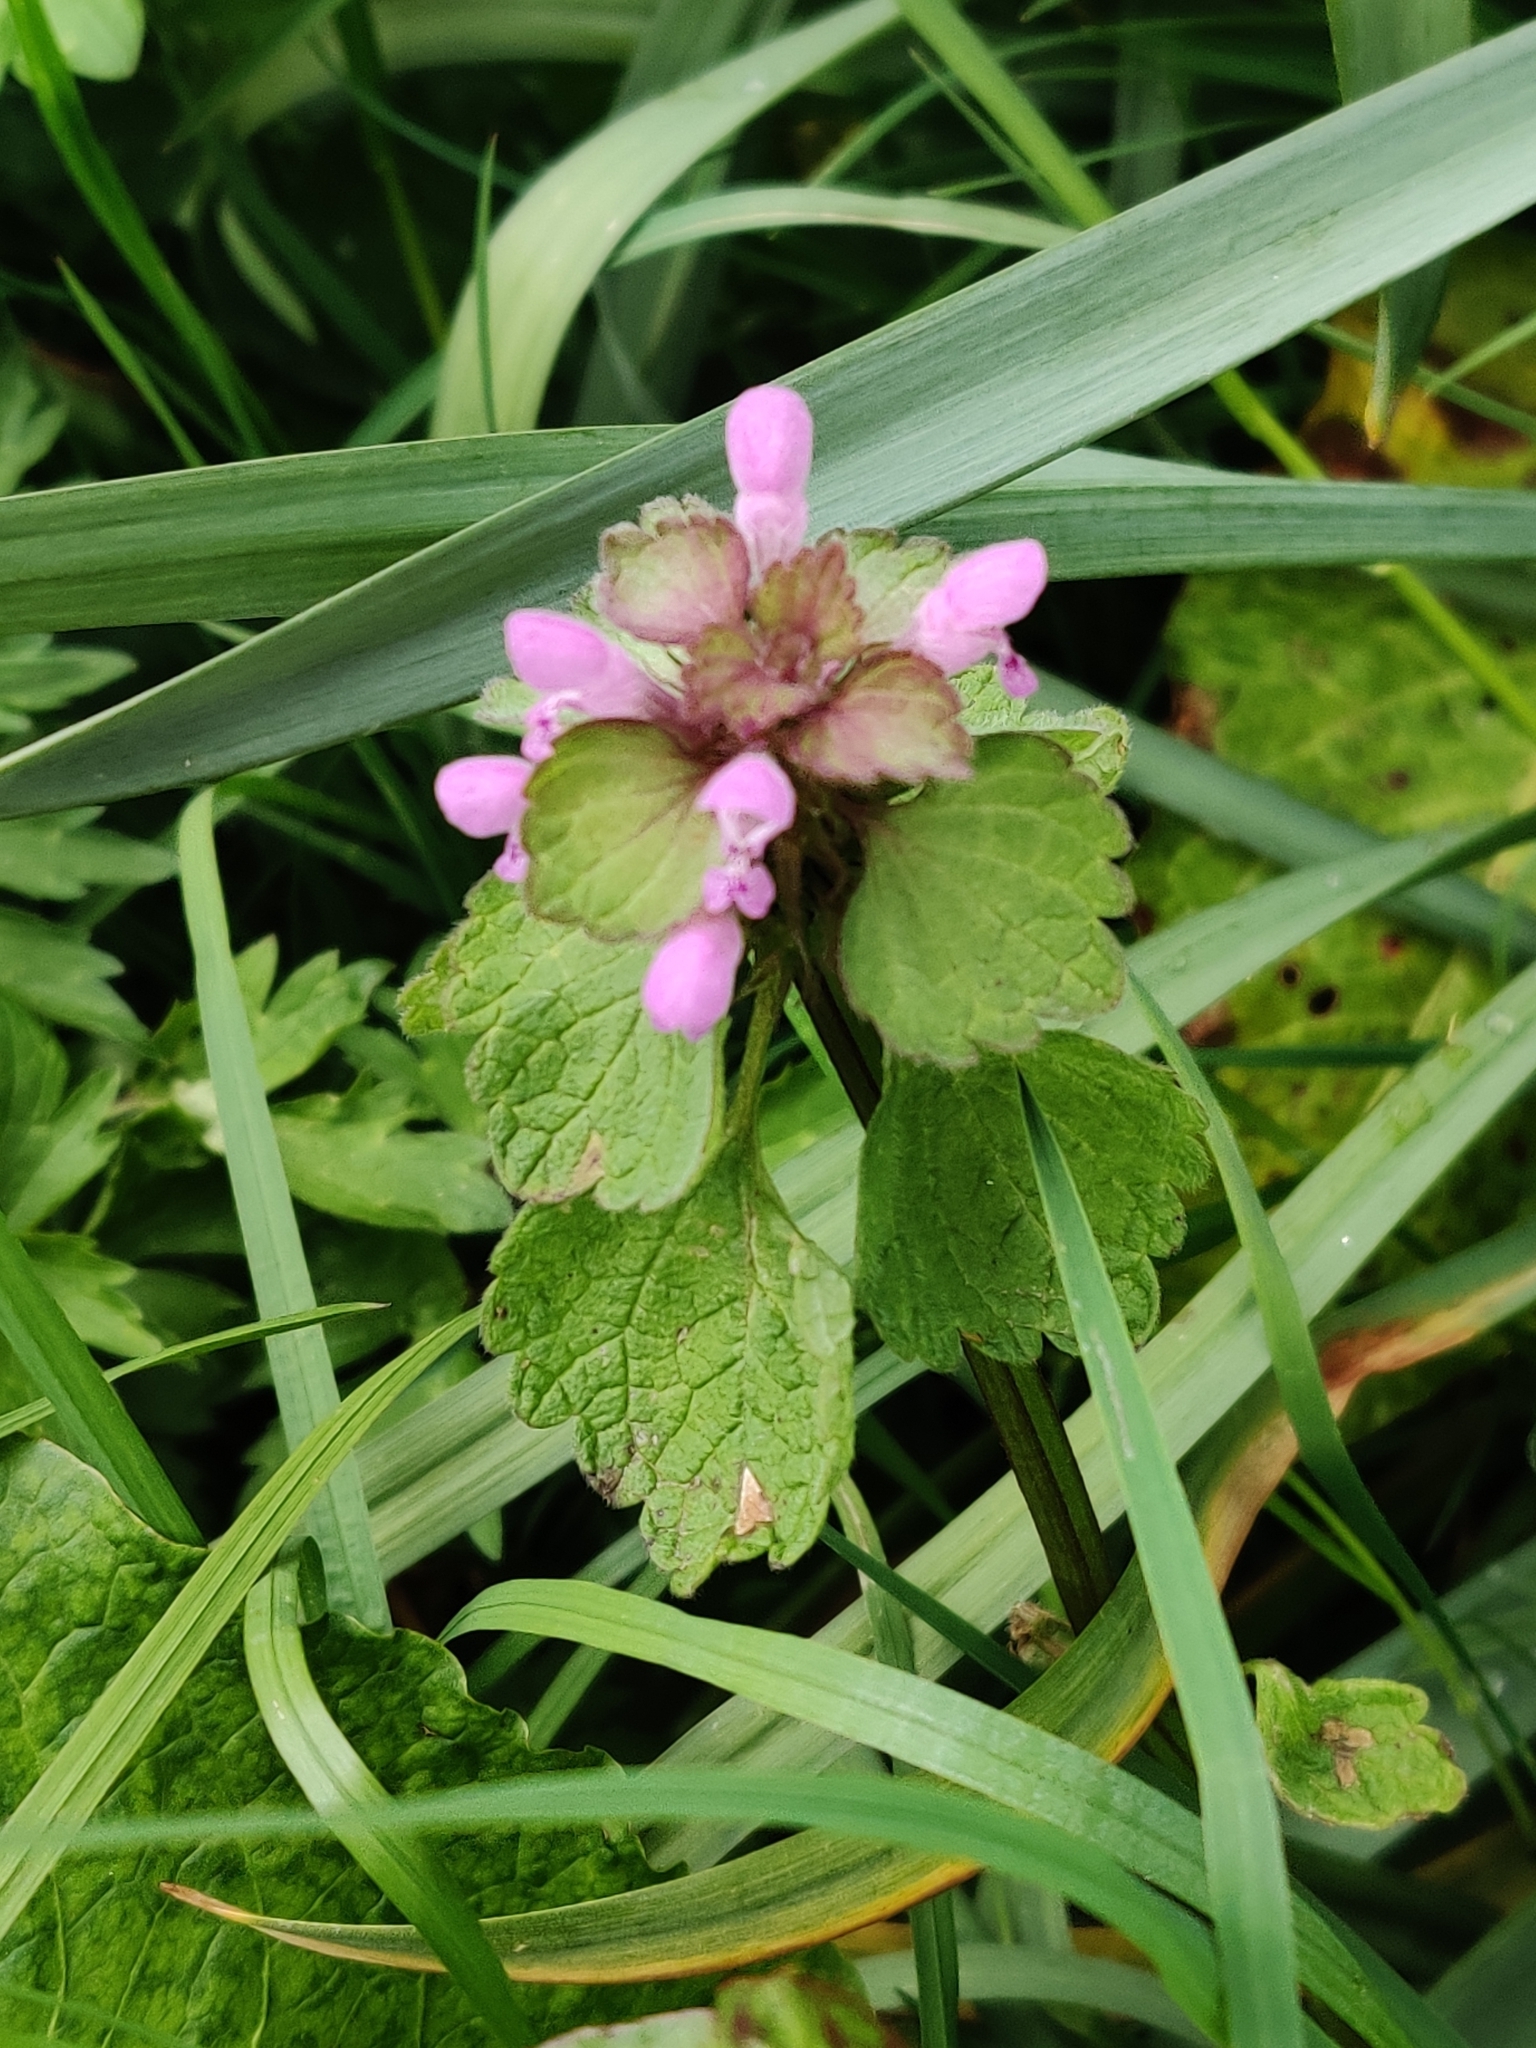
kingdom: Plantae
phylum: Tracheophyta
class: Magnoliopsida
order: Lamiales
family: Lamiaceae
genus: Lamium
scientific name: Lamium purpureum
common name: Red dead-nettle
